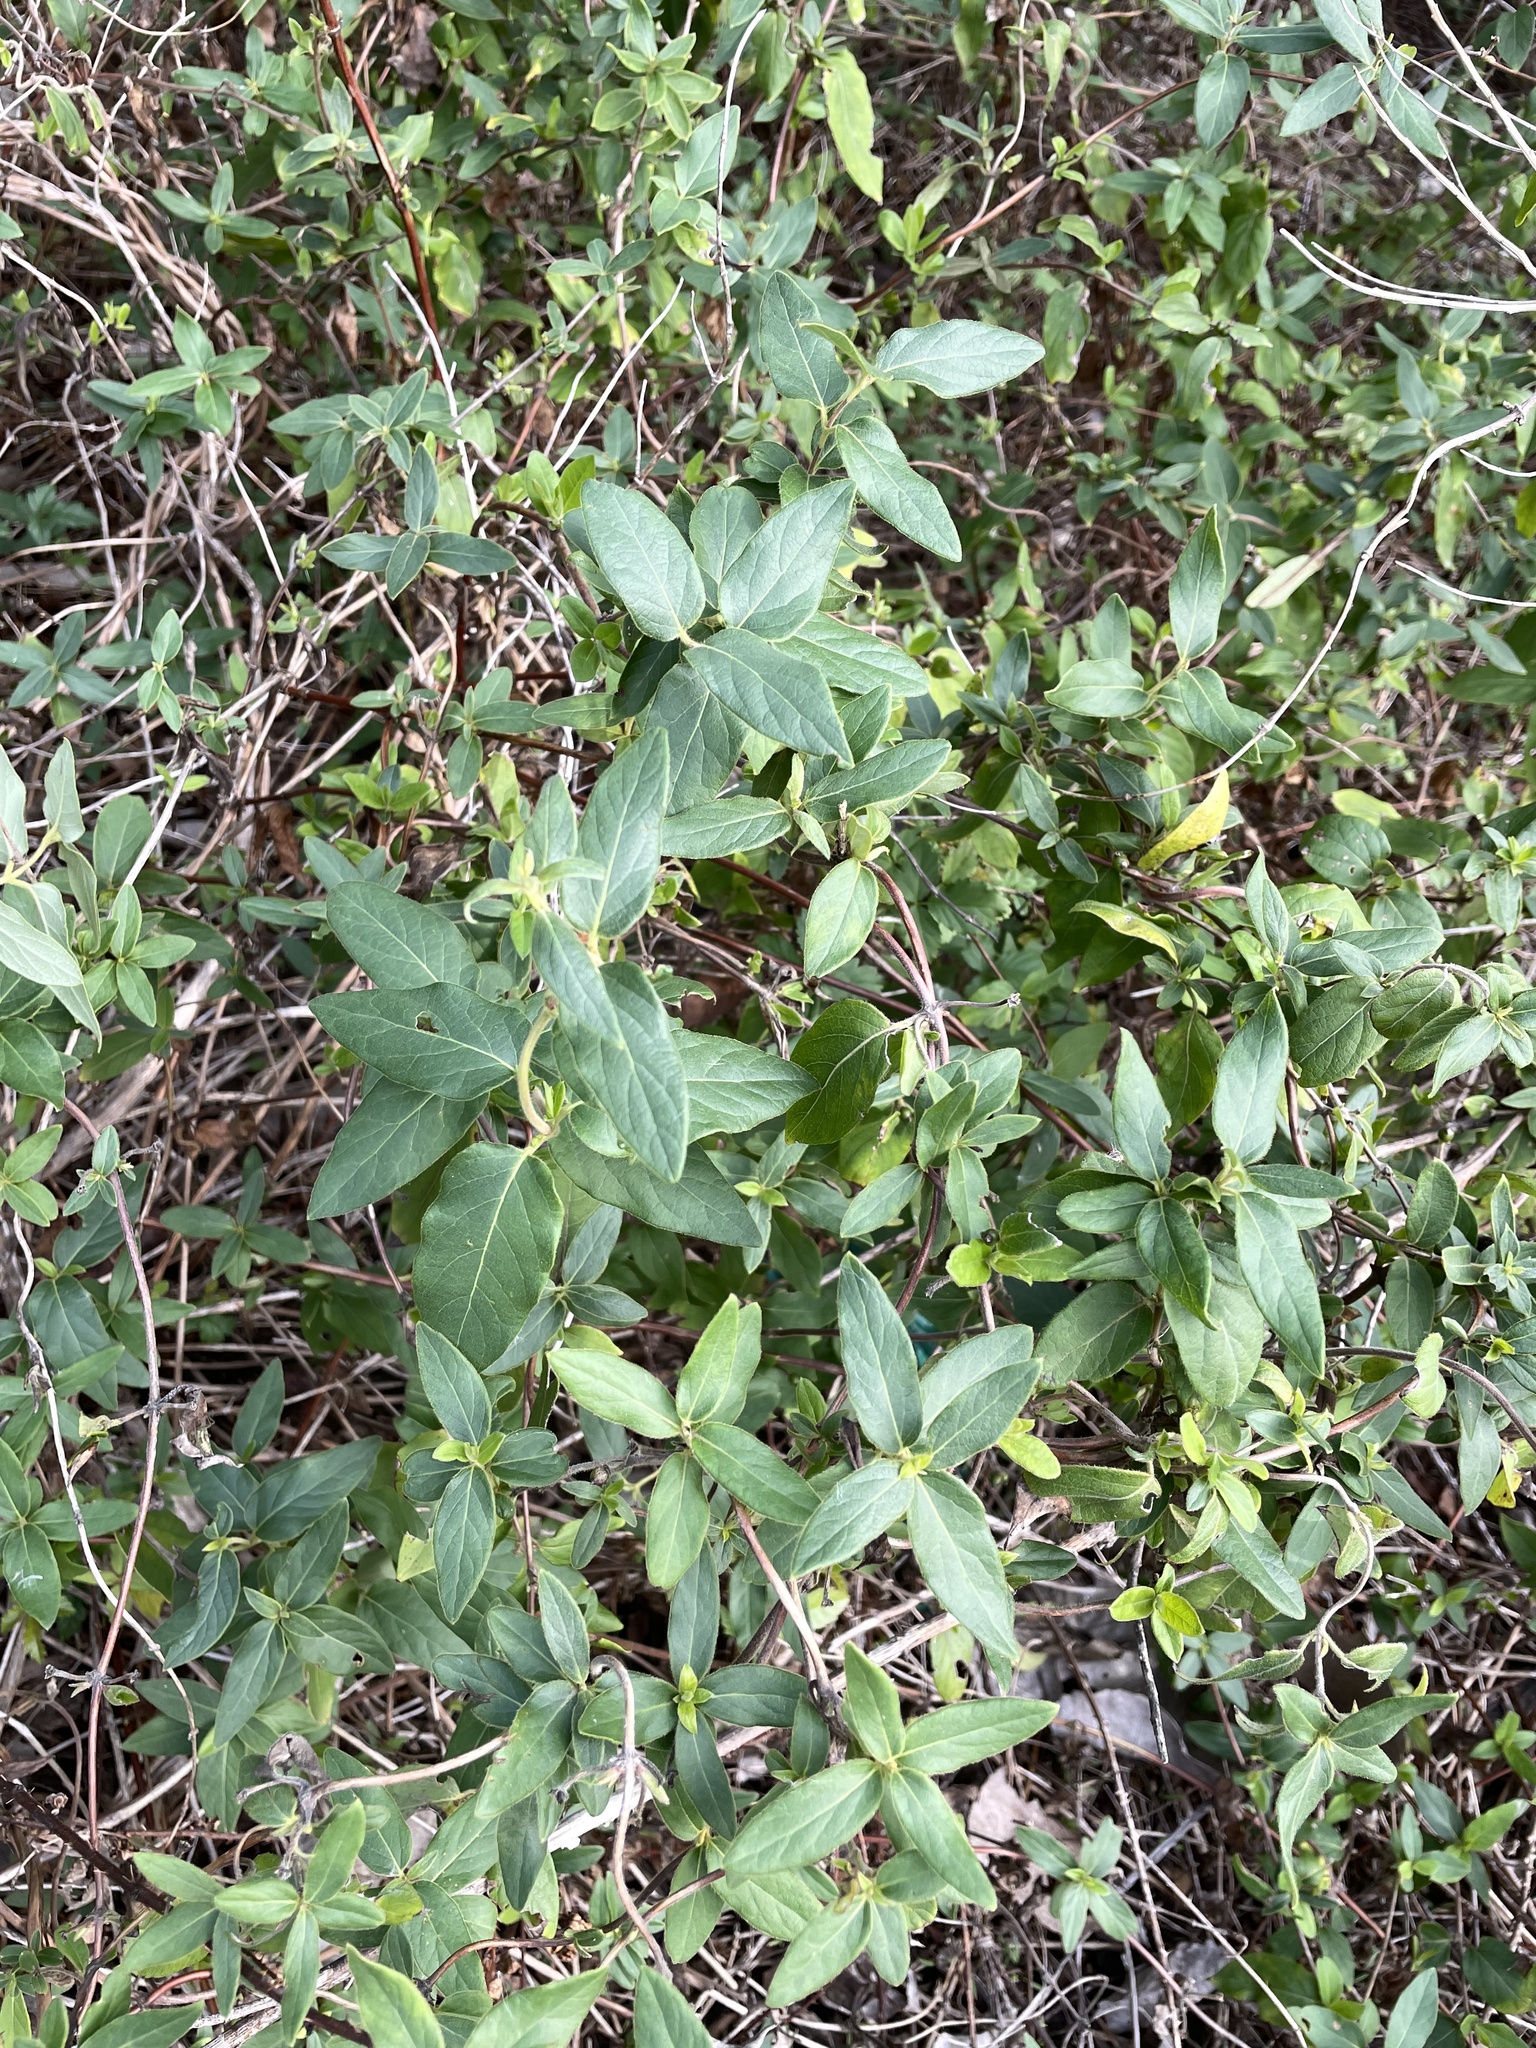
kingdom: Plantae
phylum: Tracheophyta
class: Magnoliopsida
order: Dipsacales
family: Caprifoliaceae
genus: Lonicera
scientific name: Lonicera japonica
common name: Japanese honeysuckle
